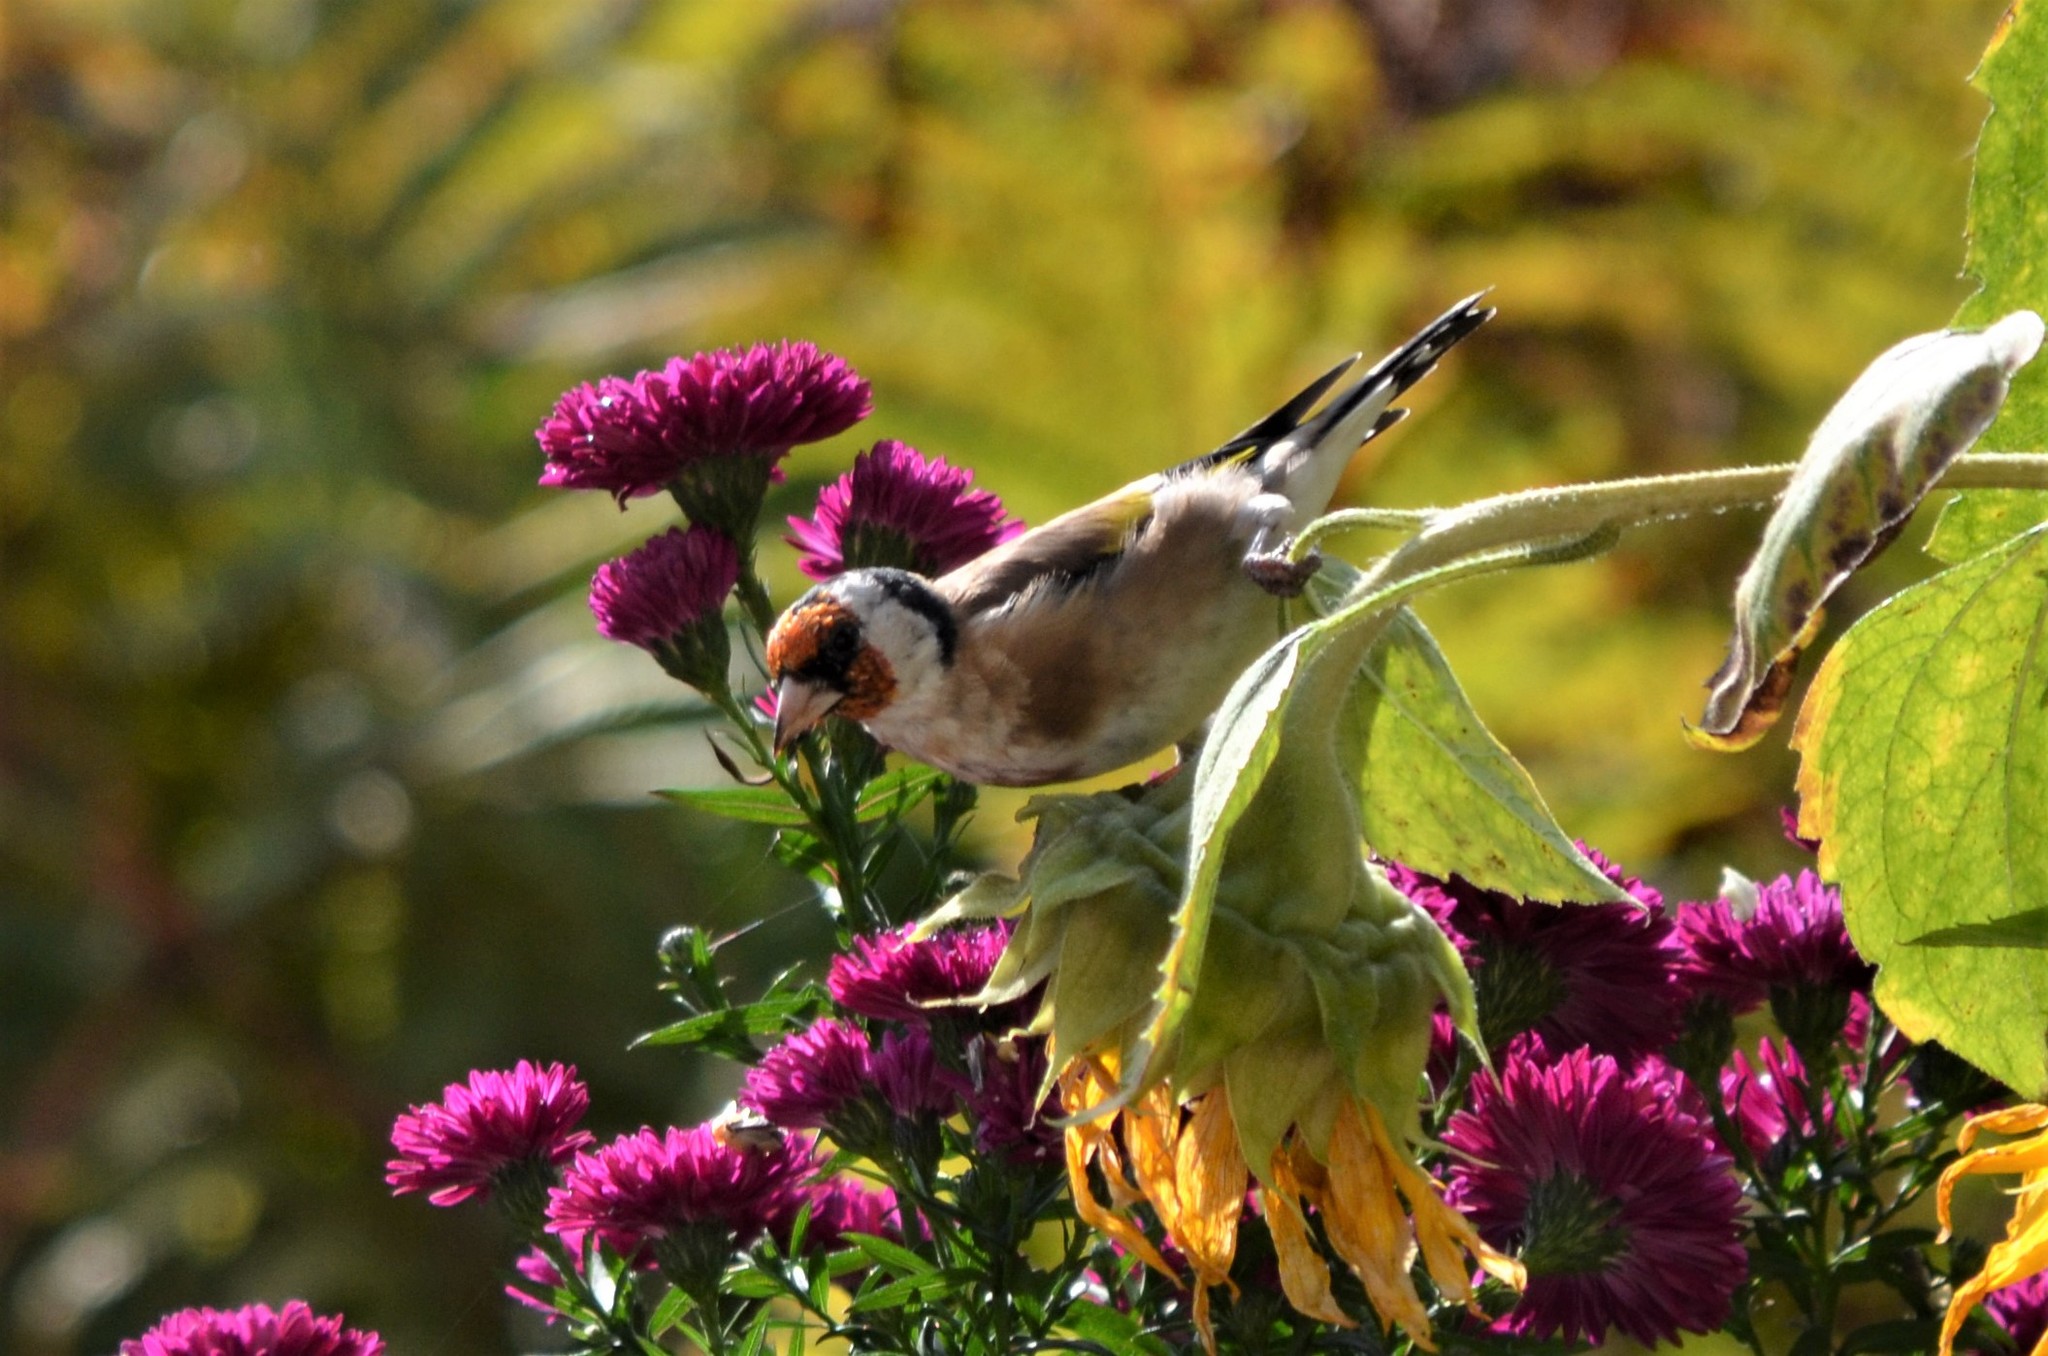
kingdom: Animalia
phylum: Chordata
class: Aves
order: Passeriformes
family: Fringillidae
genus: Carduelis
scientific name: Carduelis carduelis
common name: European goldfinch
